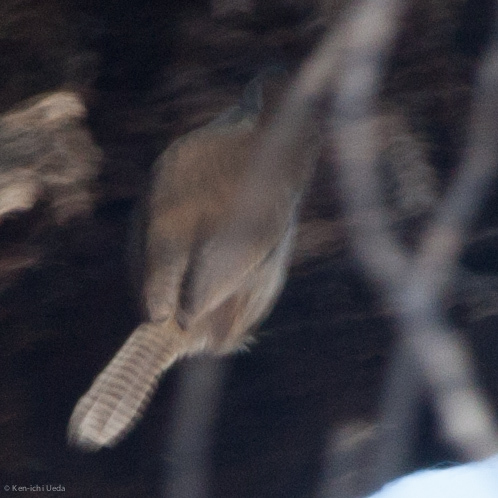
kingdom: Animalia
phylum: Chordata
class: Aves
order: Passeriformes
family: Troglodytidae
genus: Thryomanes
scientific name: Thryomanes bewickii
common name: Bewick's wren
